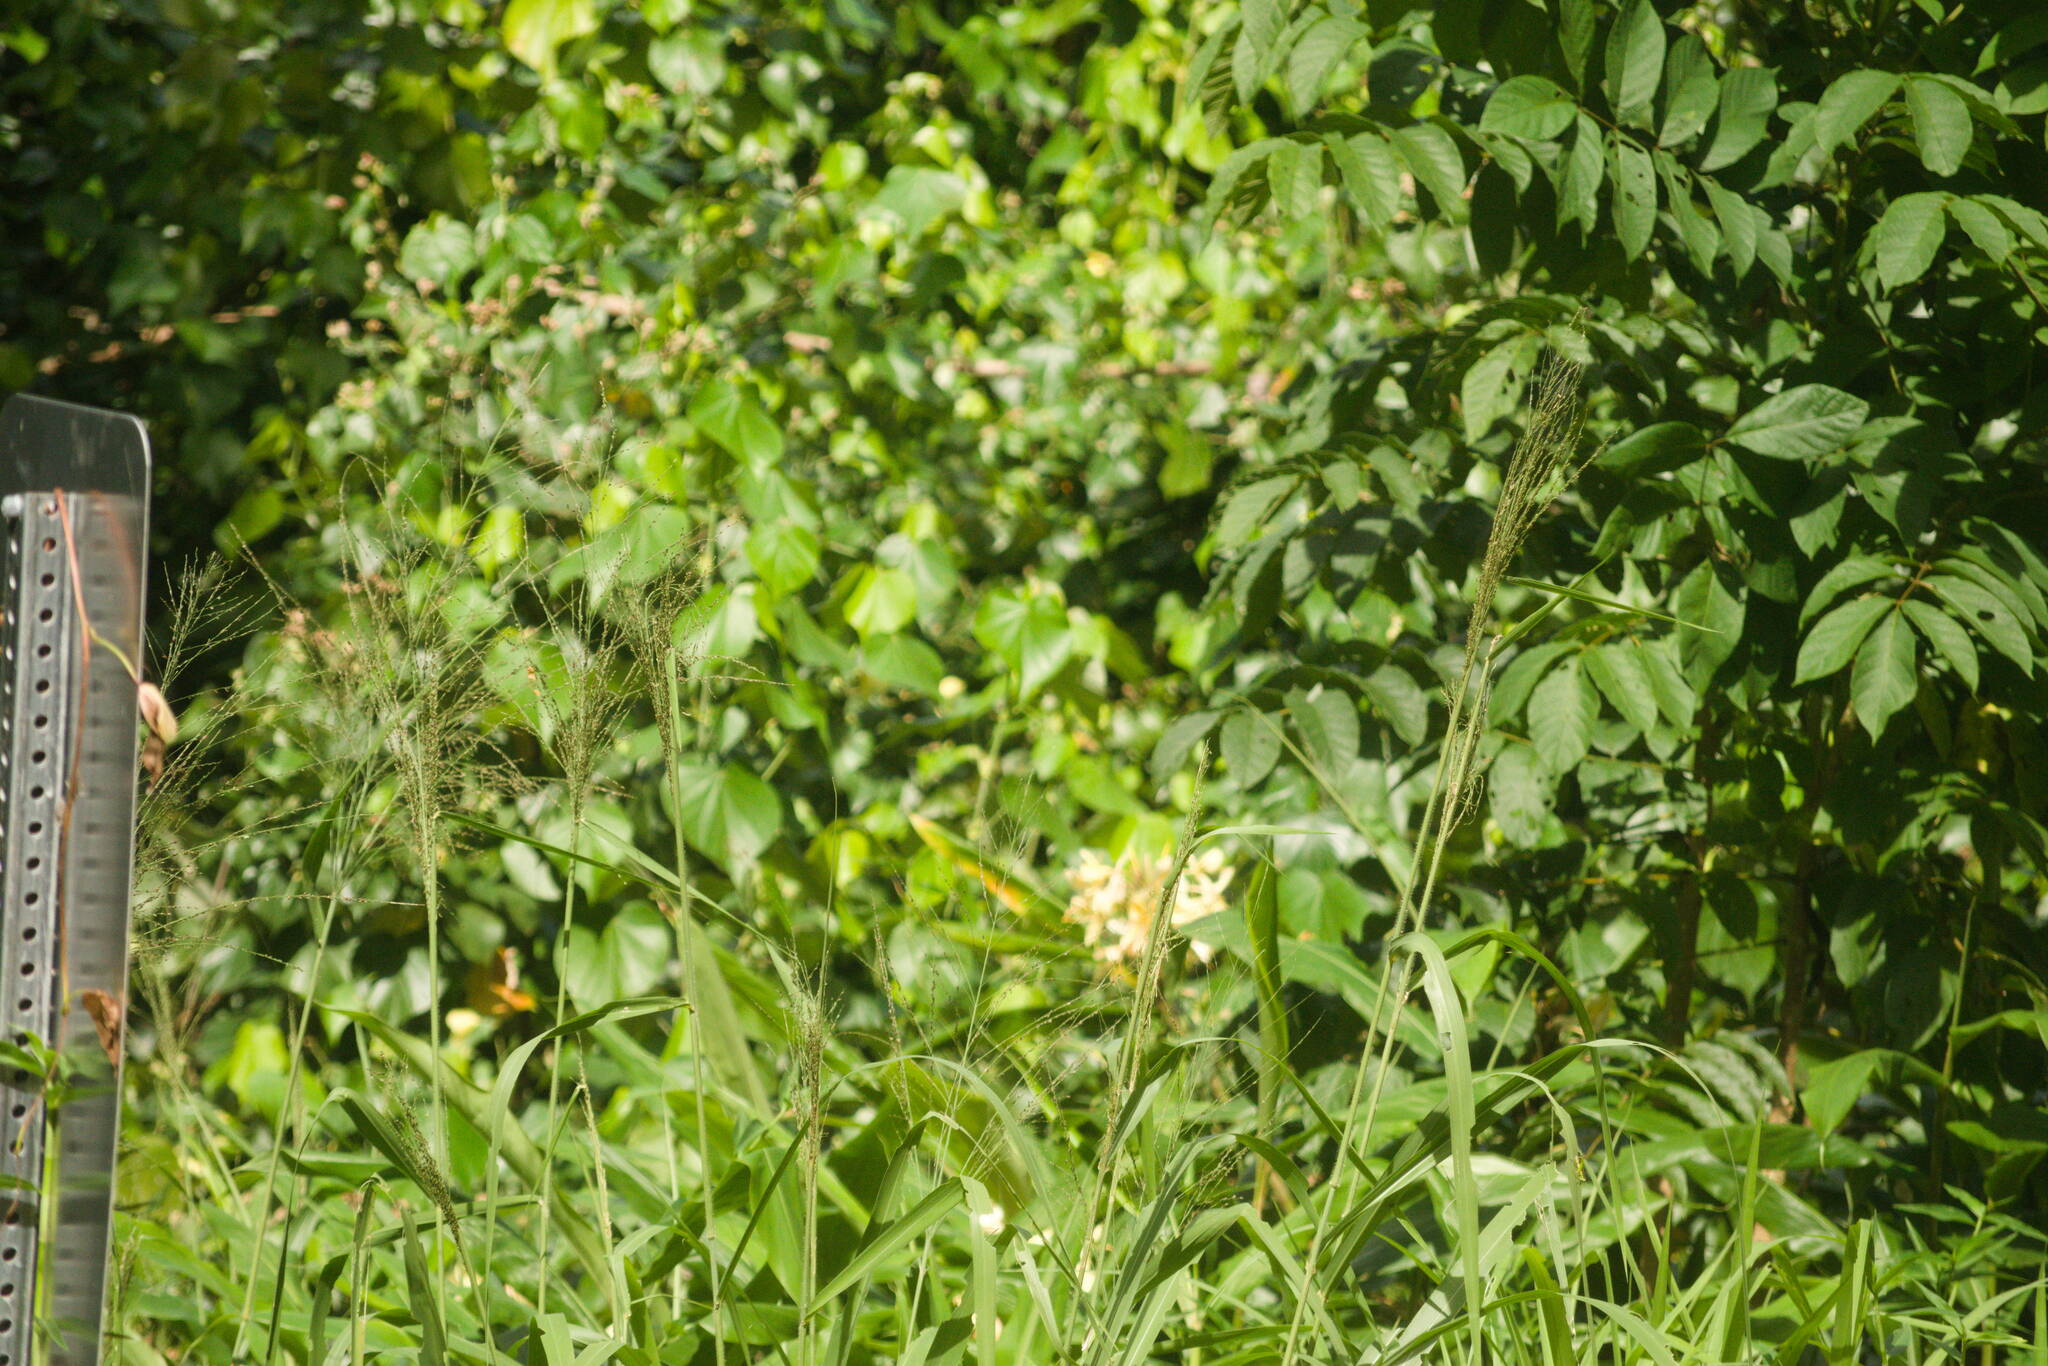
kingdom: Plantae
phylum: Tracheophyta
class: Liliopsida
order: Poales
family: Poaceae
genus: Megathyrsus
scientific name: Megathyrsus maximus
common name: Guineagrass
